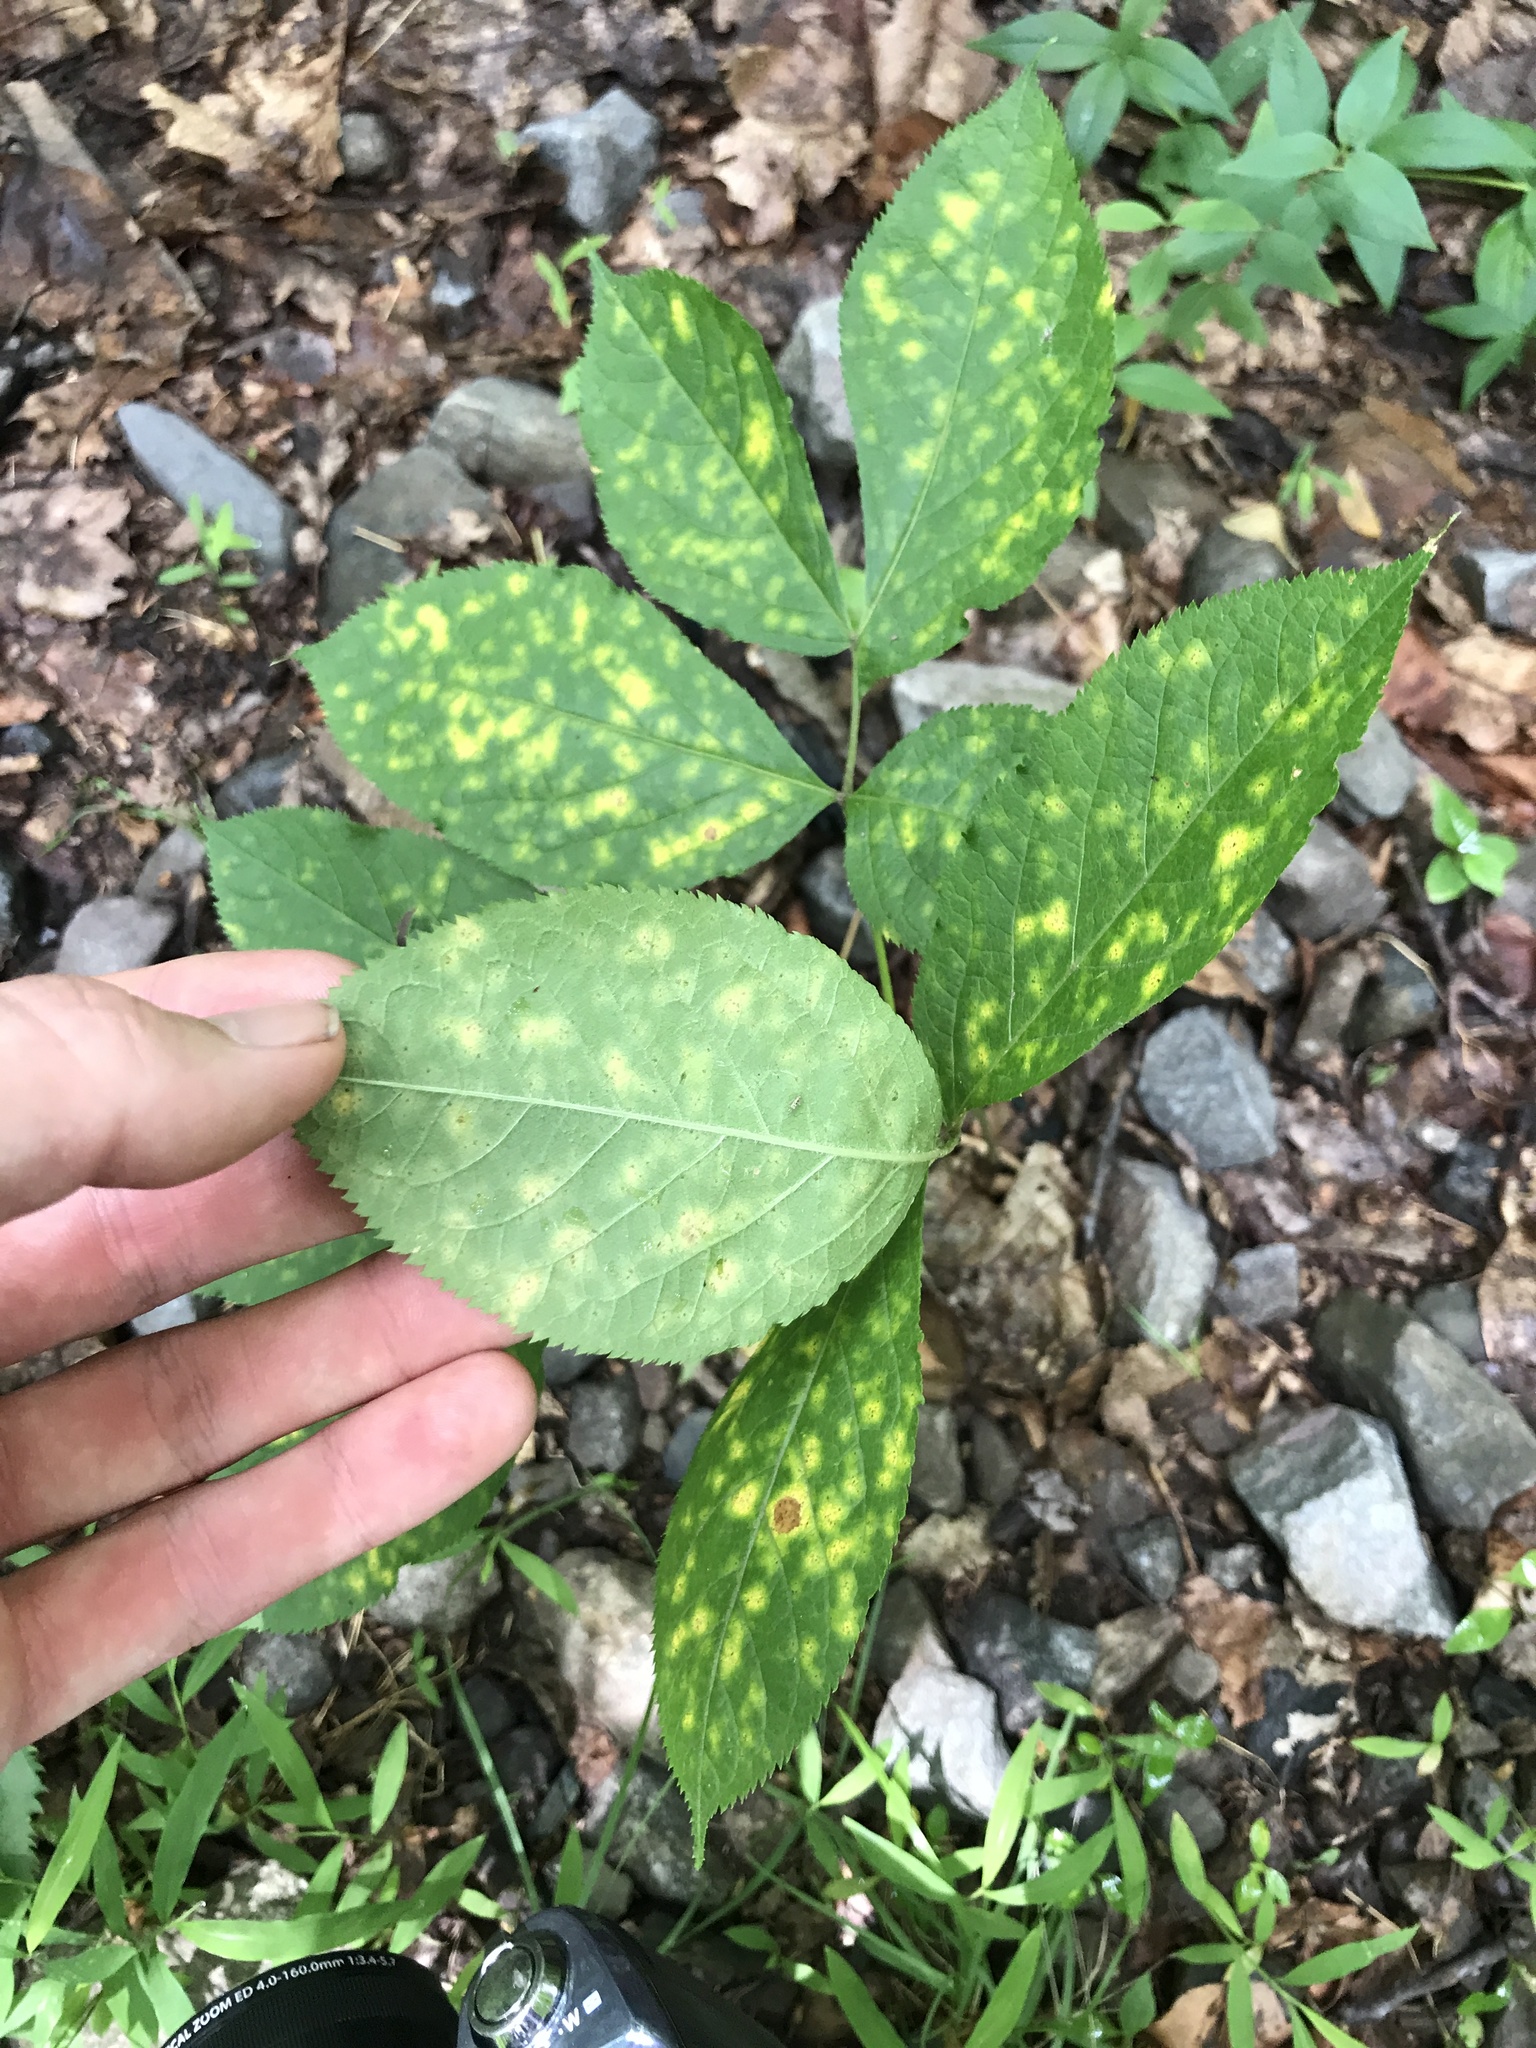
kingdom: Plantae
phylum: Tracheophyta
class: Magnoliopsida
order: Apiales
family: Araliaceae
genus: Aralia
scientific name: Aralia nudicaulis
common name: Wild sarsaparilla
